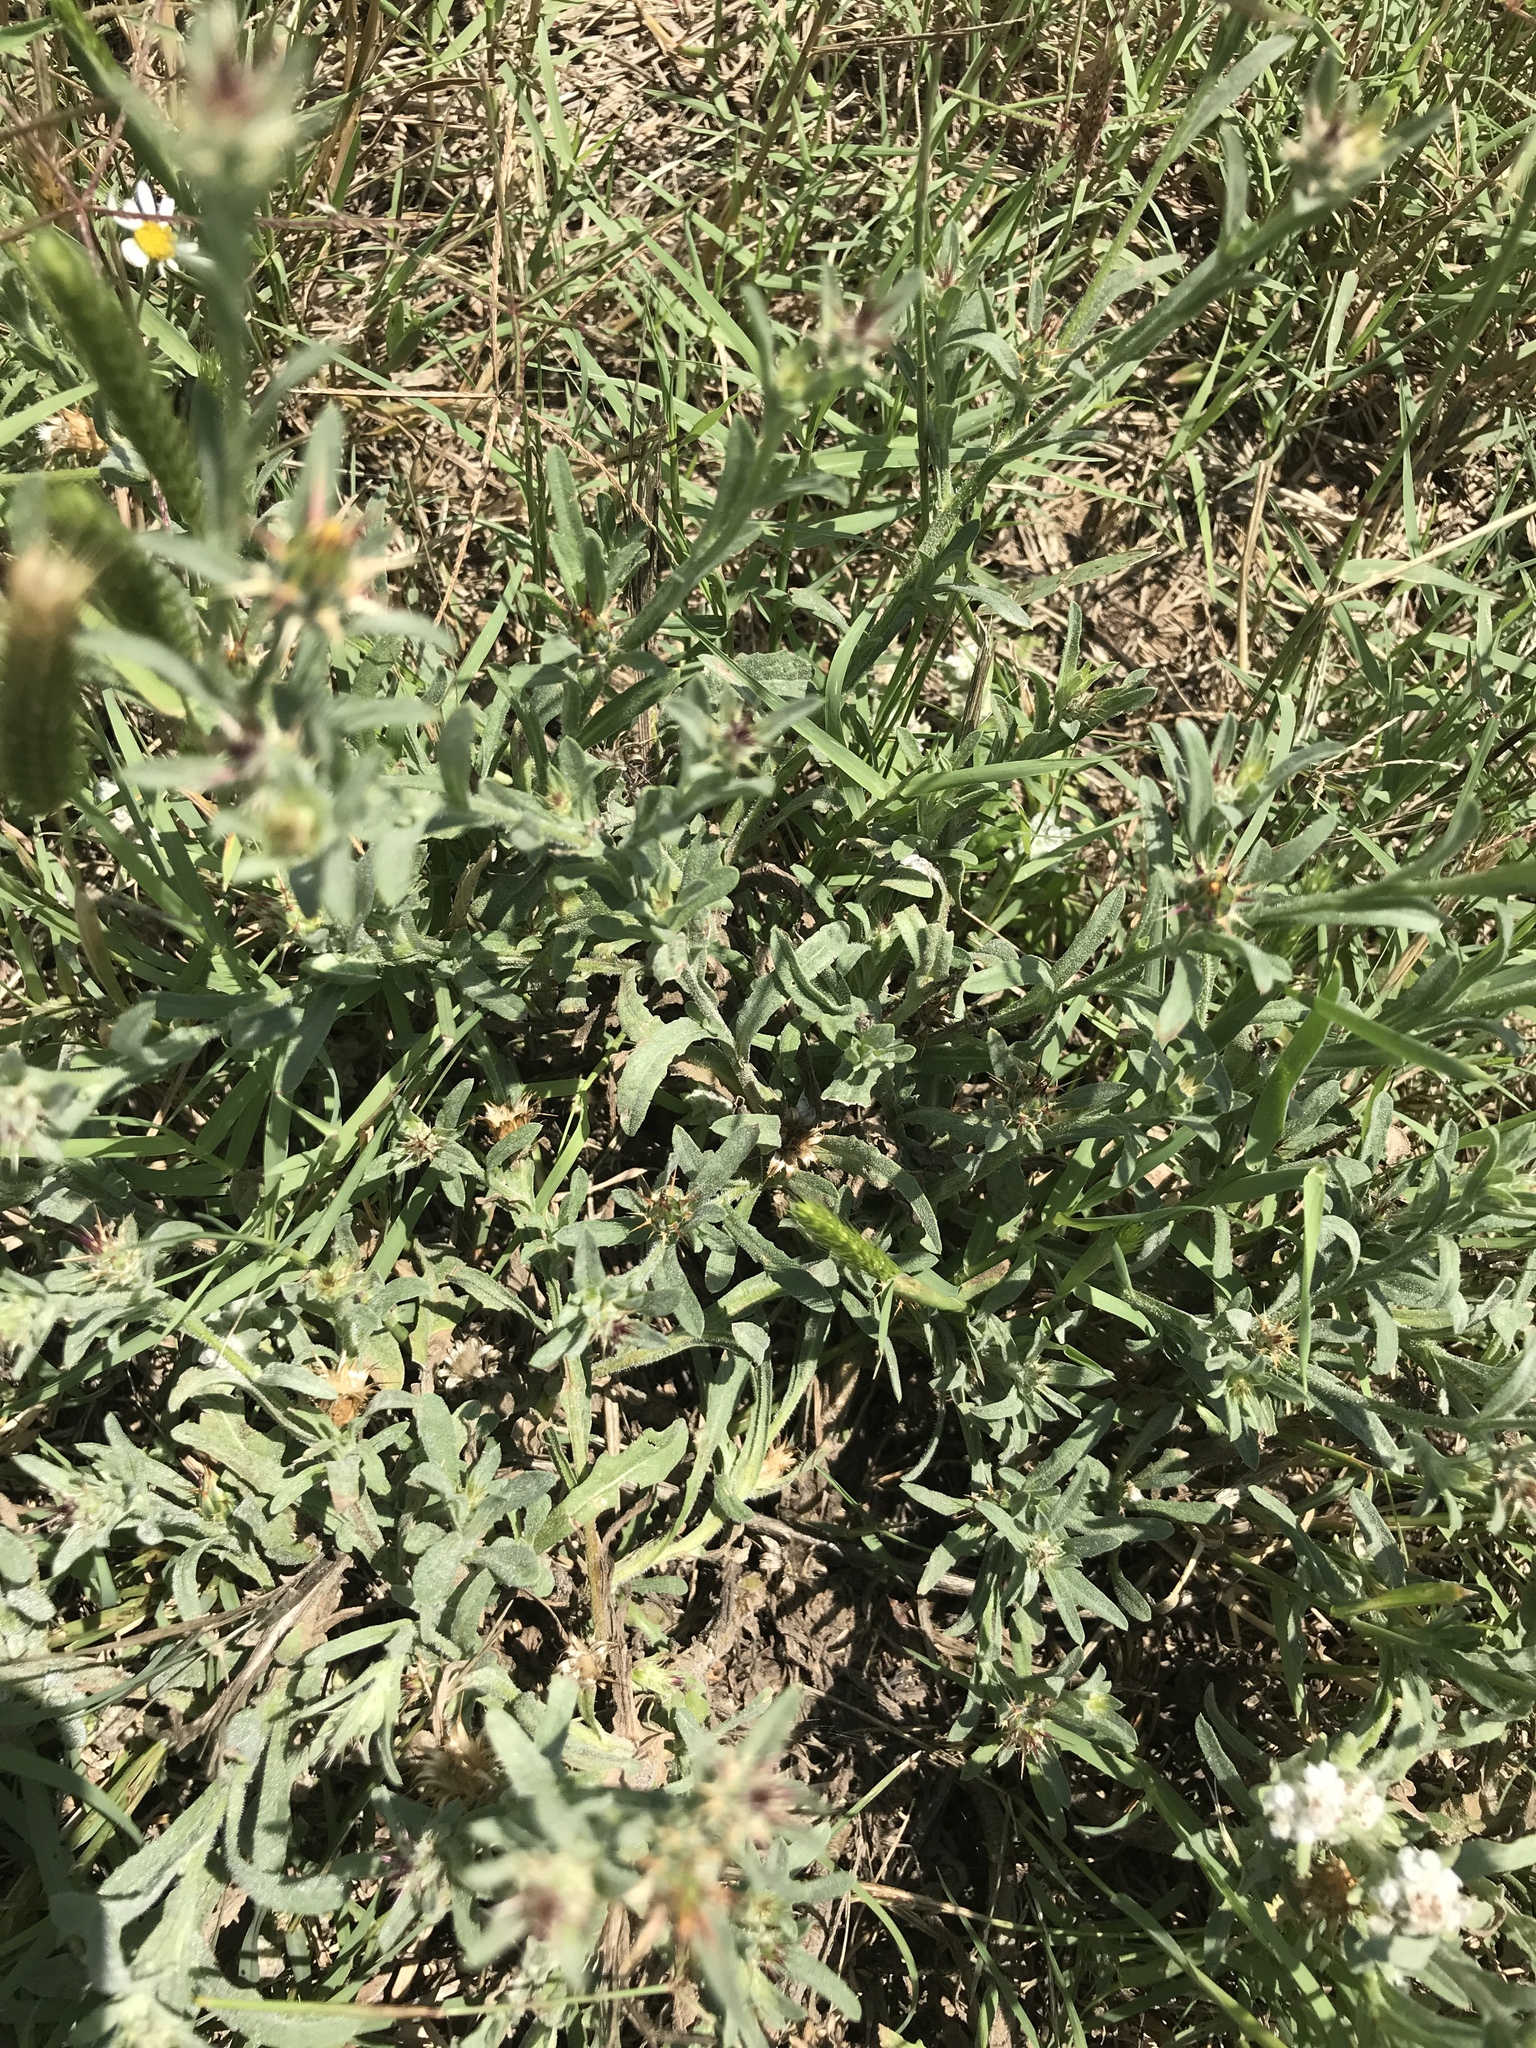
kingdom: Plantae
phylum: Tracheophyta
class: Magnoliopsida
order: Asterales
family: Asteraceae
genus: Centaurea
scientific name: Centaurea melitensis
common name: Maltese star-thistle
